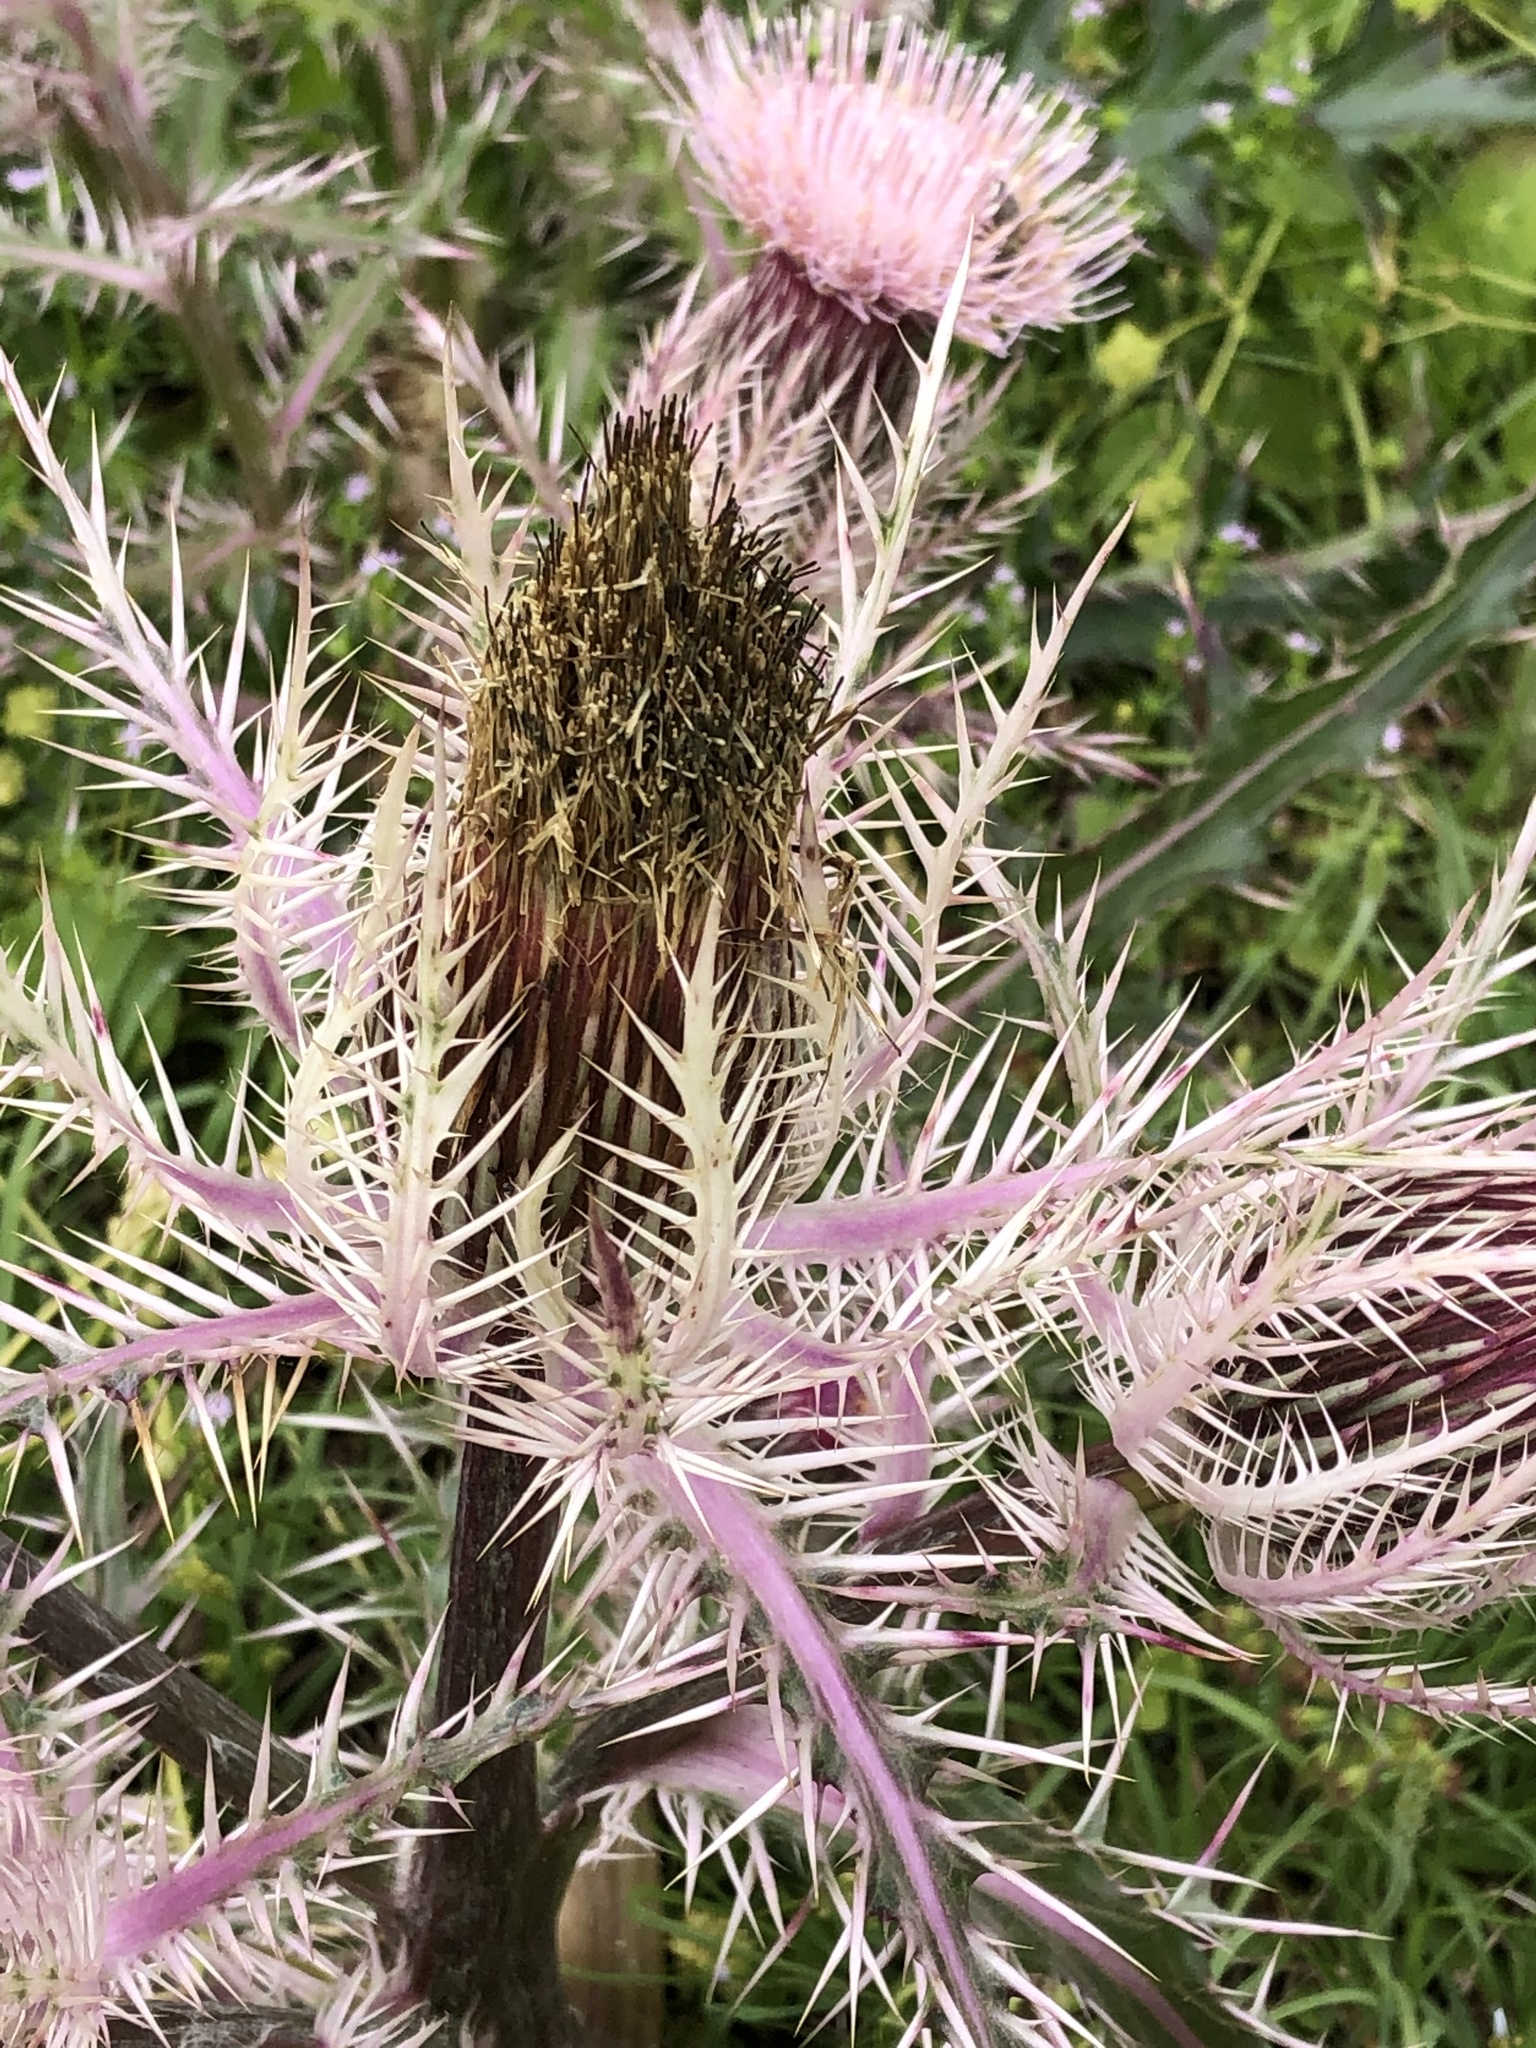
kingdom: Plantae
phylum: Tracheophyta
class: Magnoliopsida
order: Asterales
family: Asteraceae
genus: Cirsium
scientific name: Cirsium horridulum
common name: Bristly thistle
